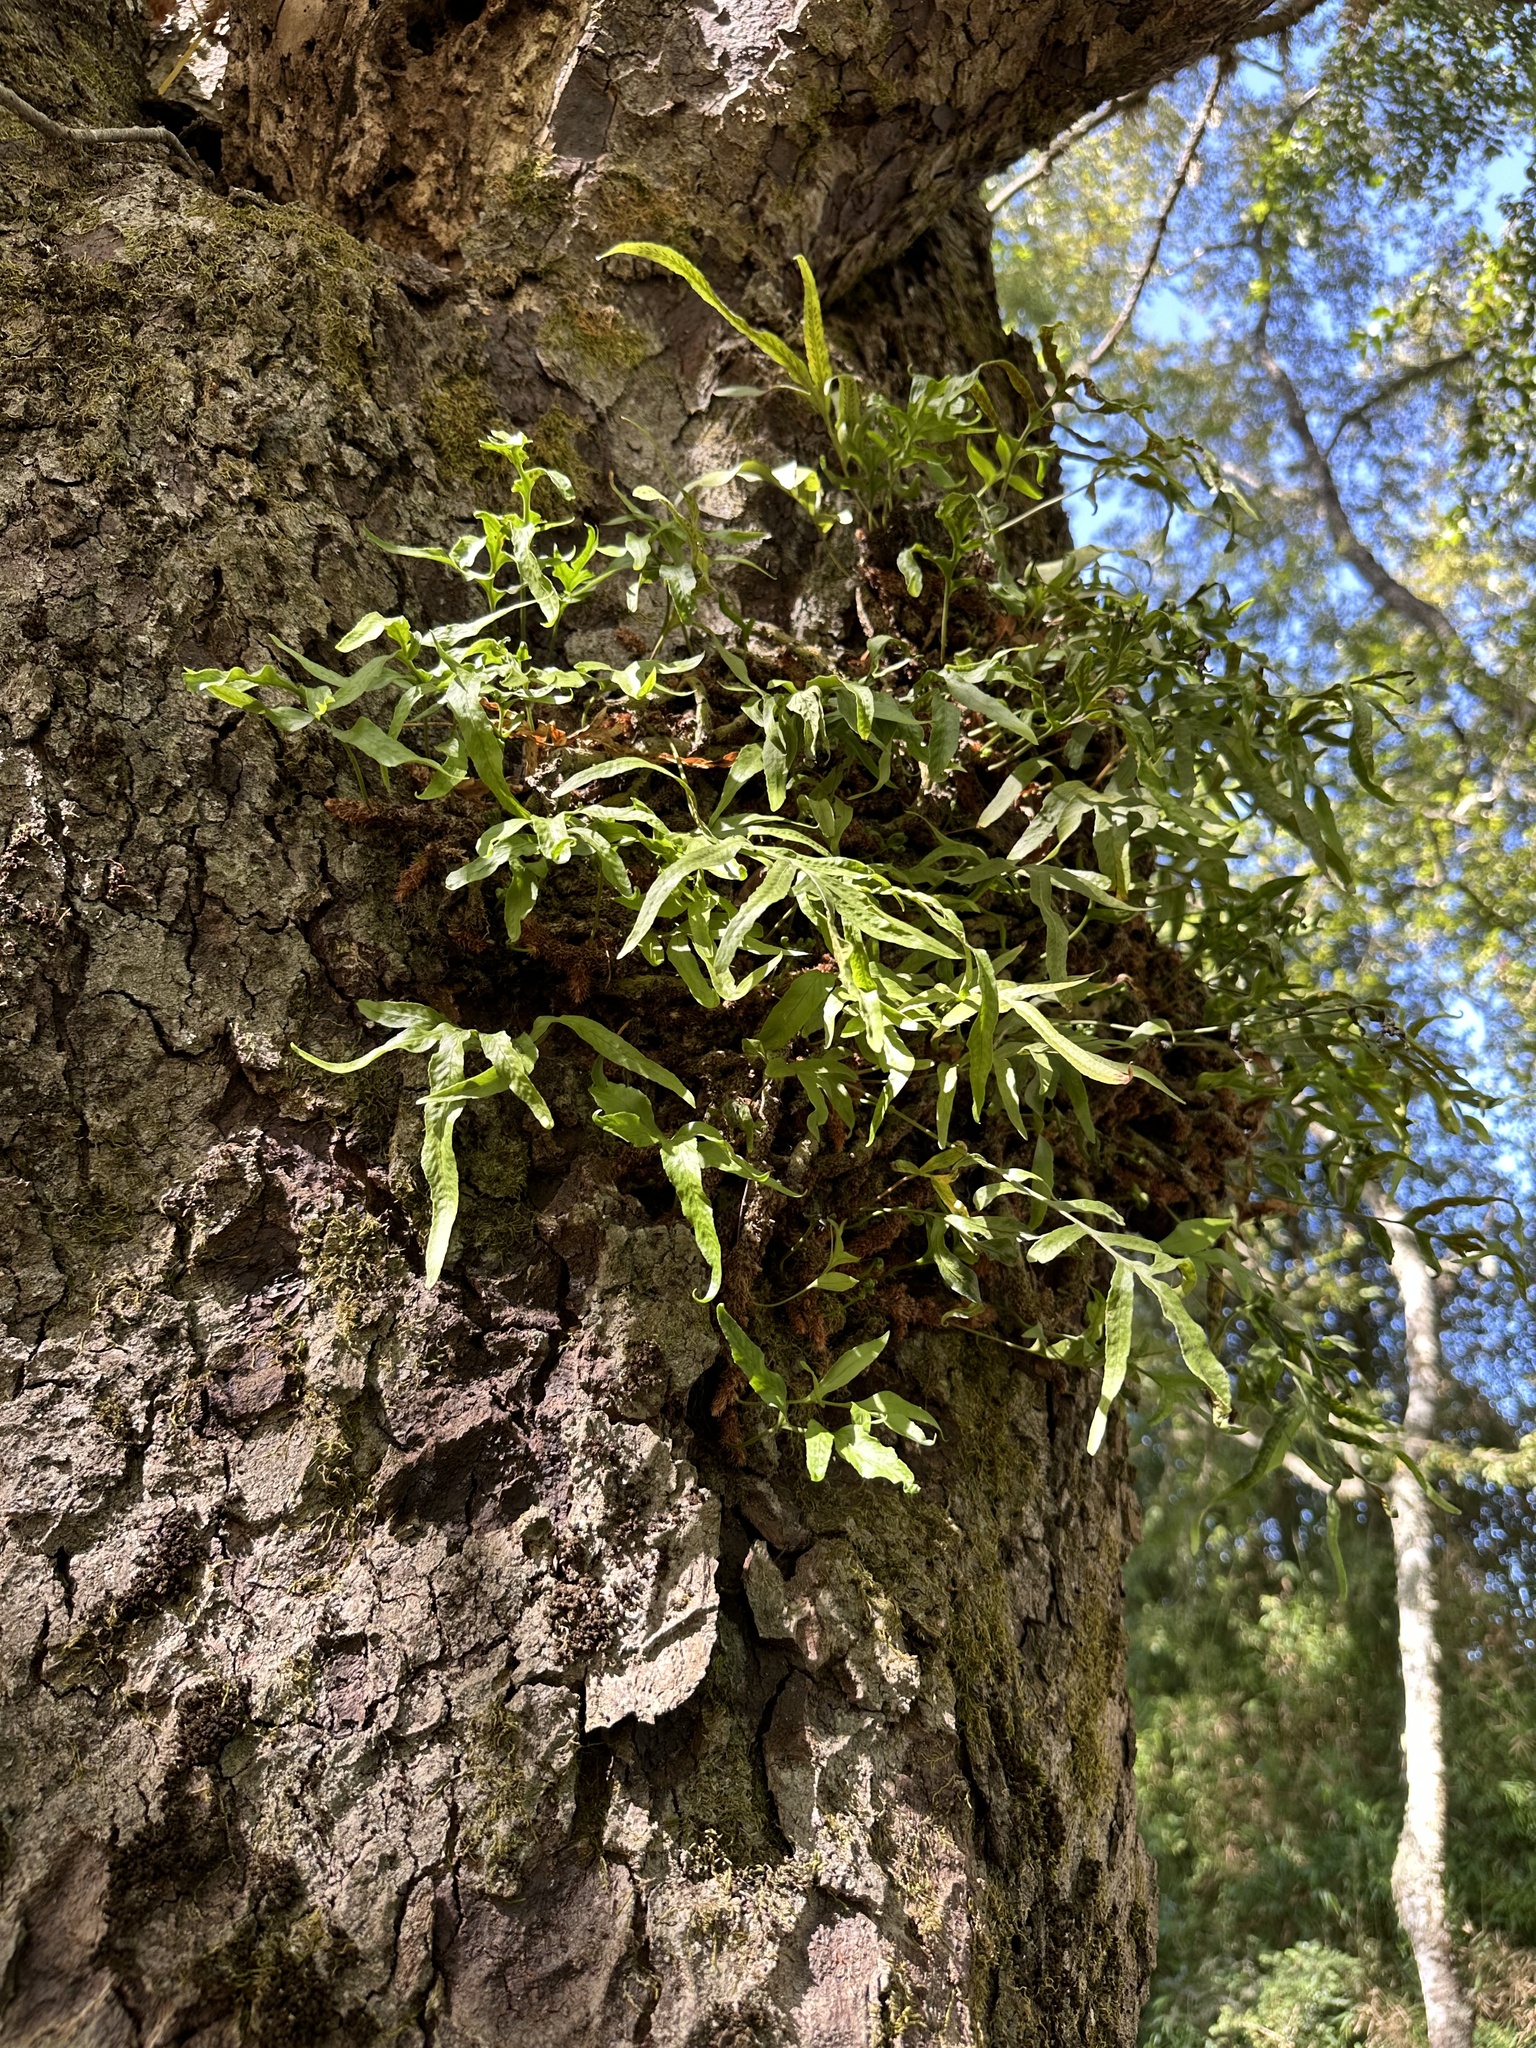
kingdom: Plantae
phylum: Tracheophyta
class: Polypodiopsida
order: Polypodiales
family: Polypodiaceae
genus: Synammia
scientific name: Synammia feuillei
